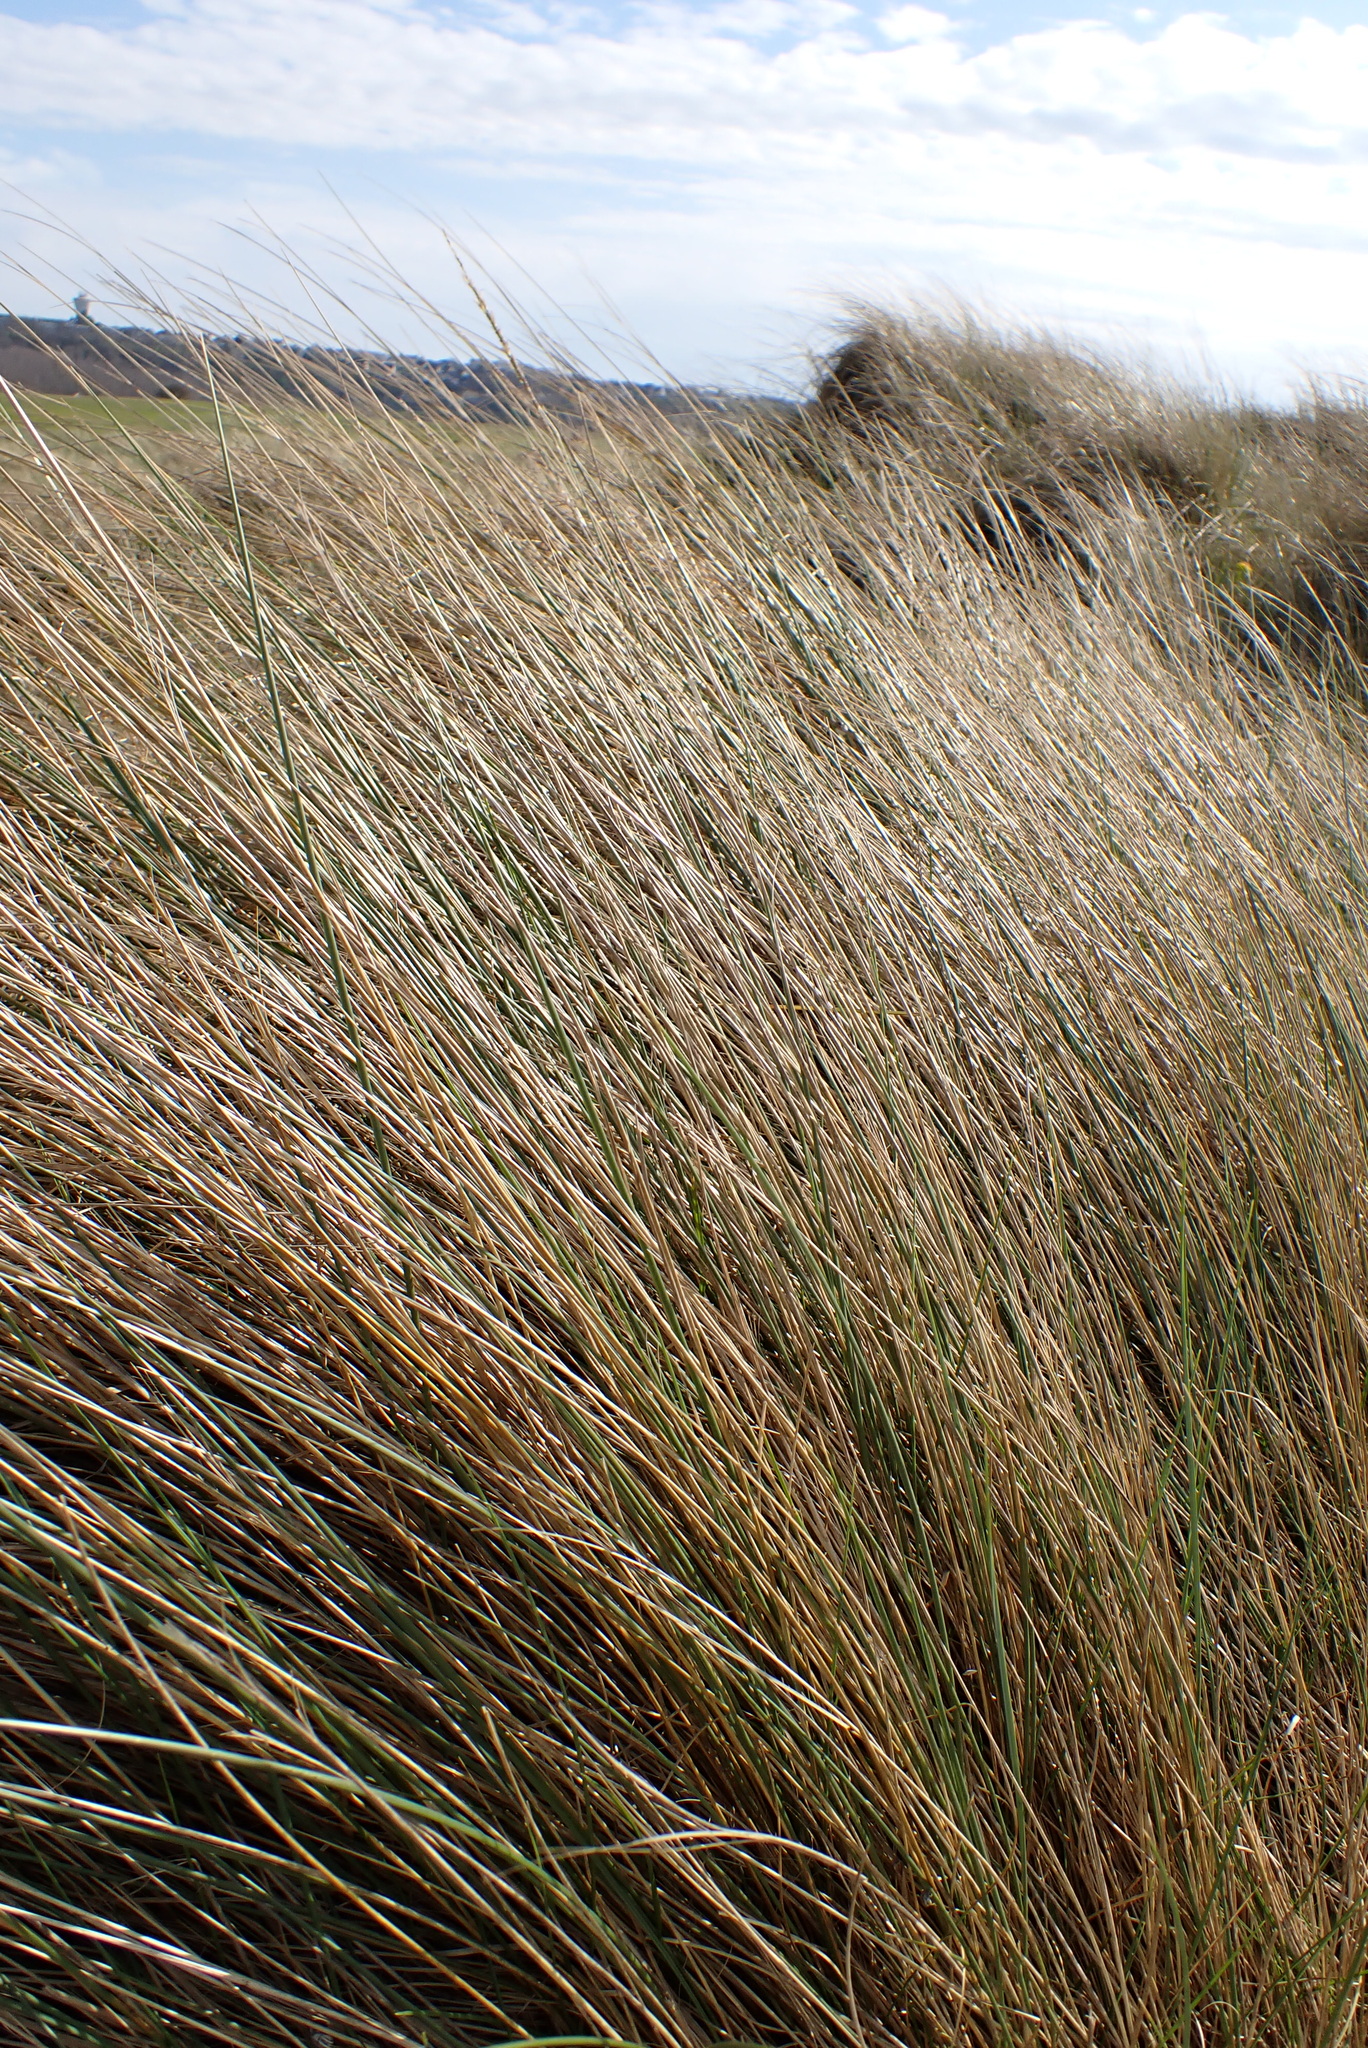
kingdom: Plantae
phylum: Tracheophyta
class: Liliopsida
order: Poales
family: Poaceae
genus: Calamagrostis
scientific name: Calamagrostis arenaria
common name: European beachgrass
